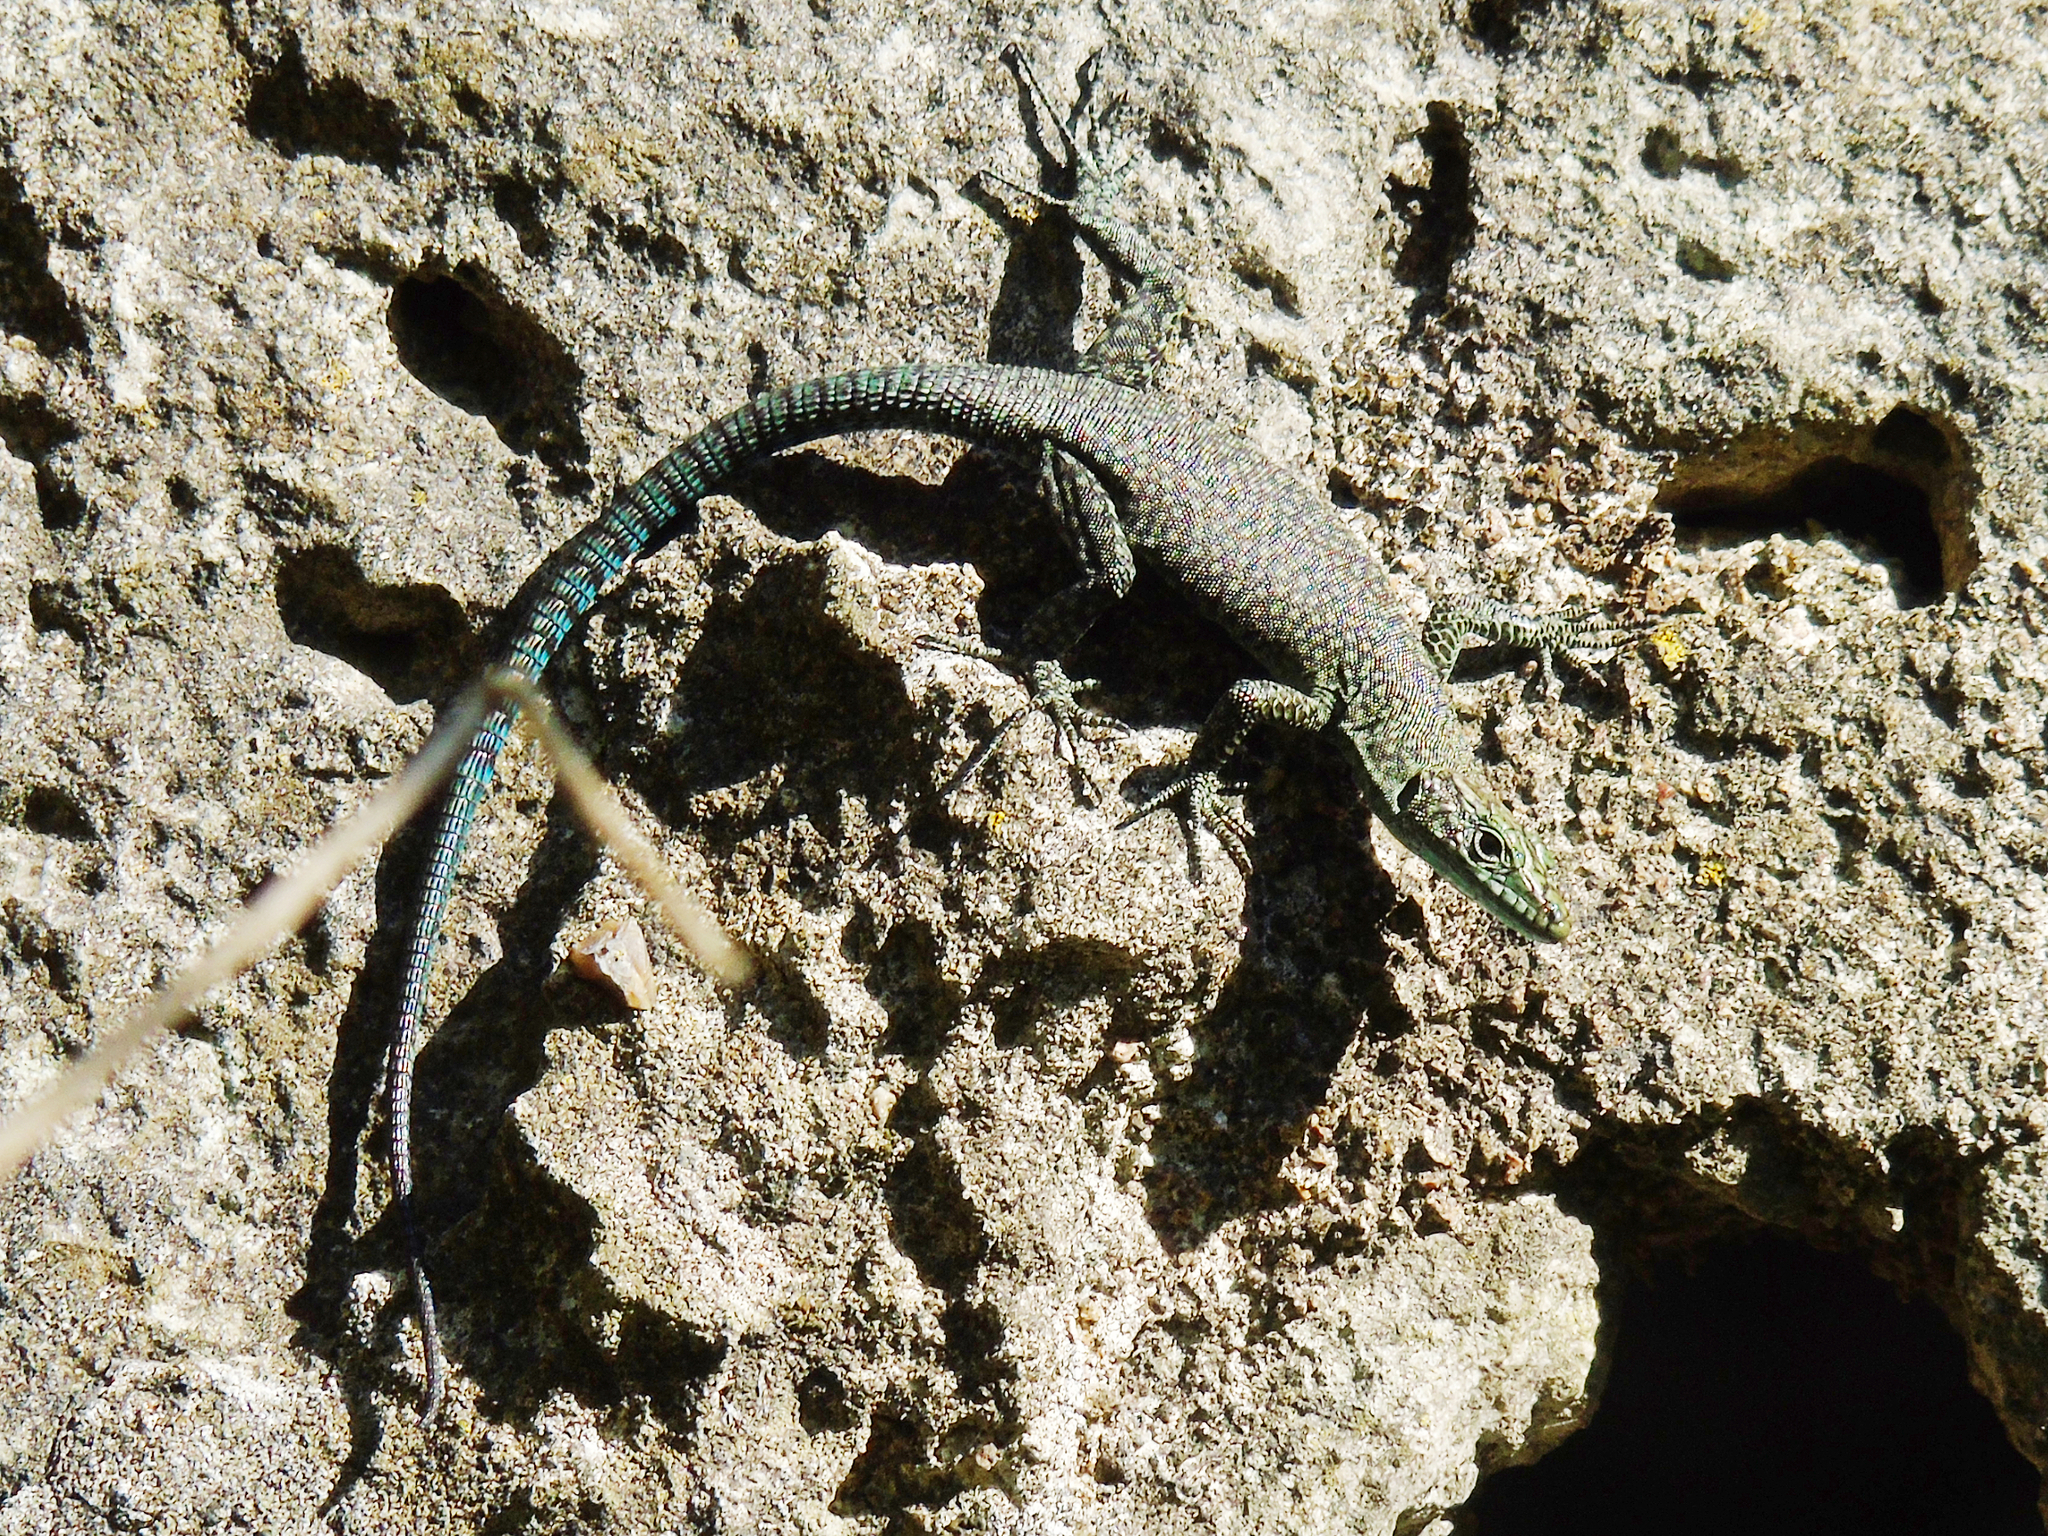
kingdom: Animalia
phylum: Chordata
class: Squamata
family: Lacertidae
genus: Dalmatolacerta
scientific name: Dalmatolacerta oxycephala
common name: Sharp-snouted rock lizard
